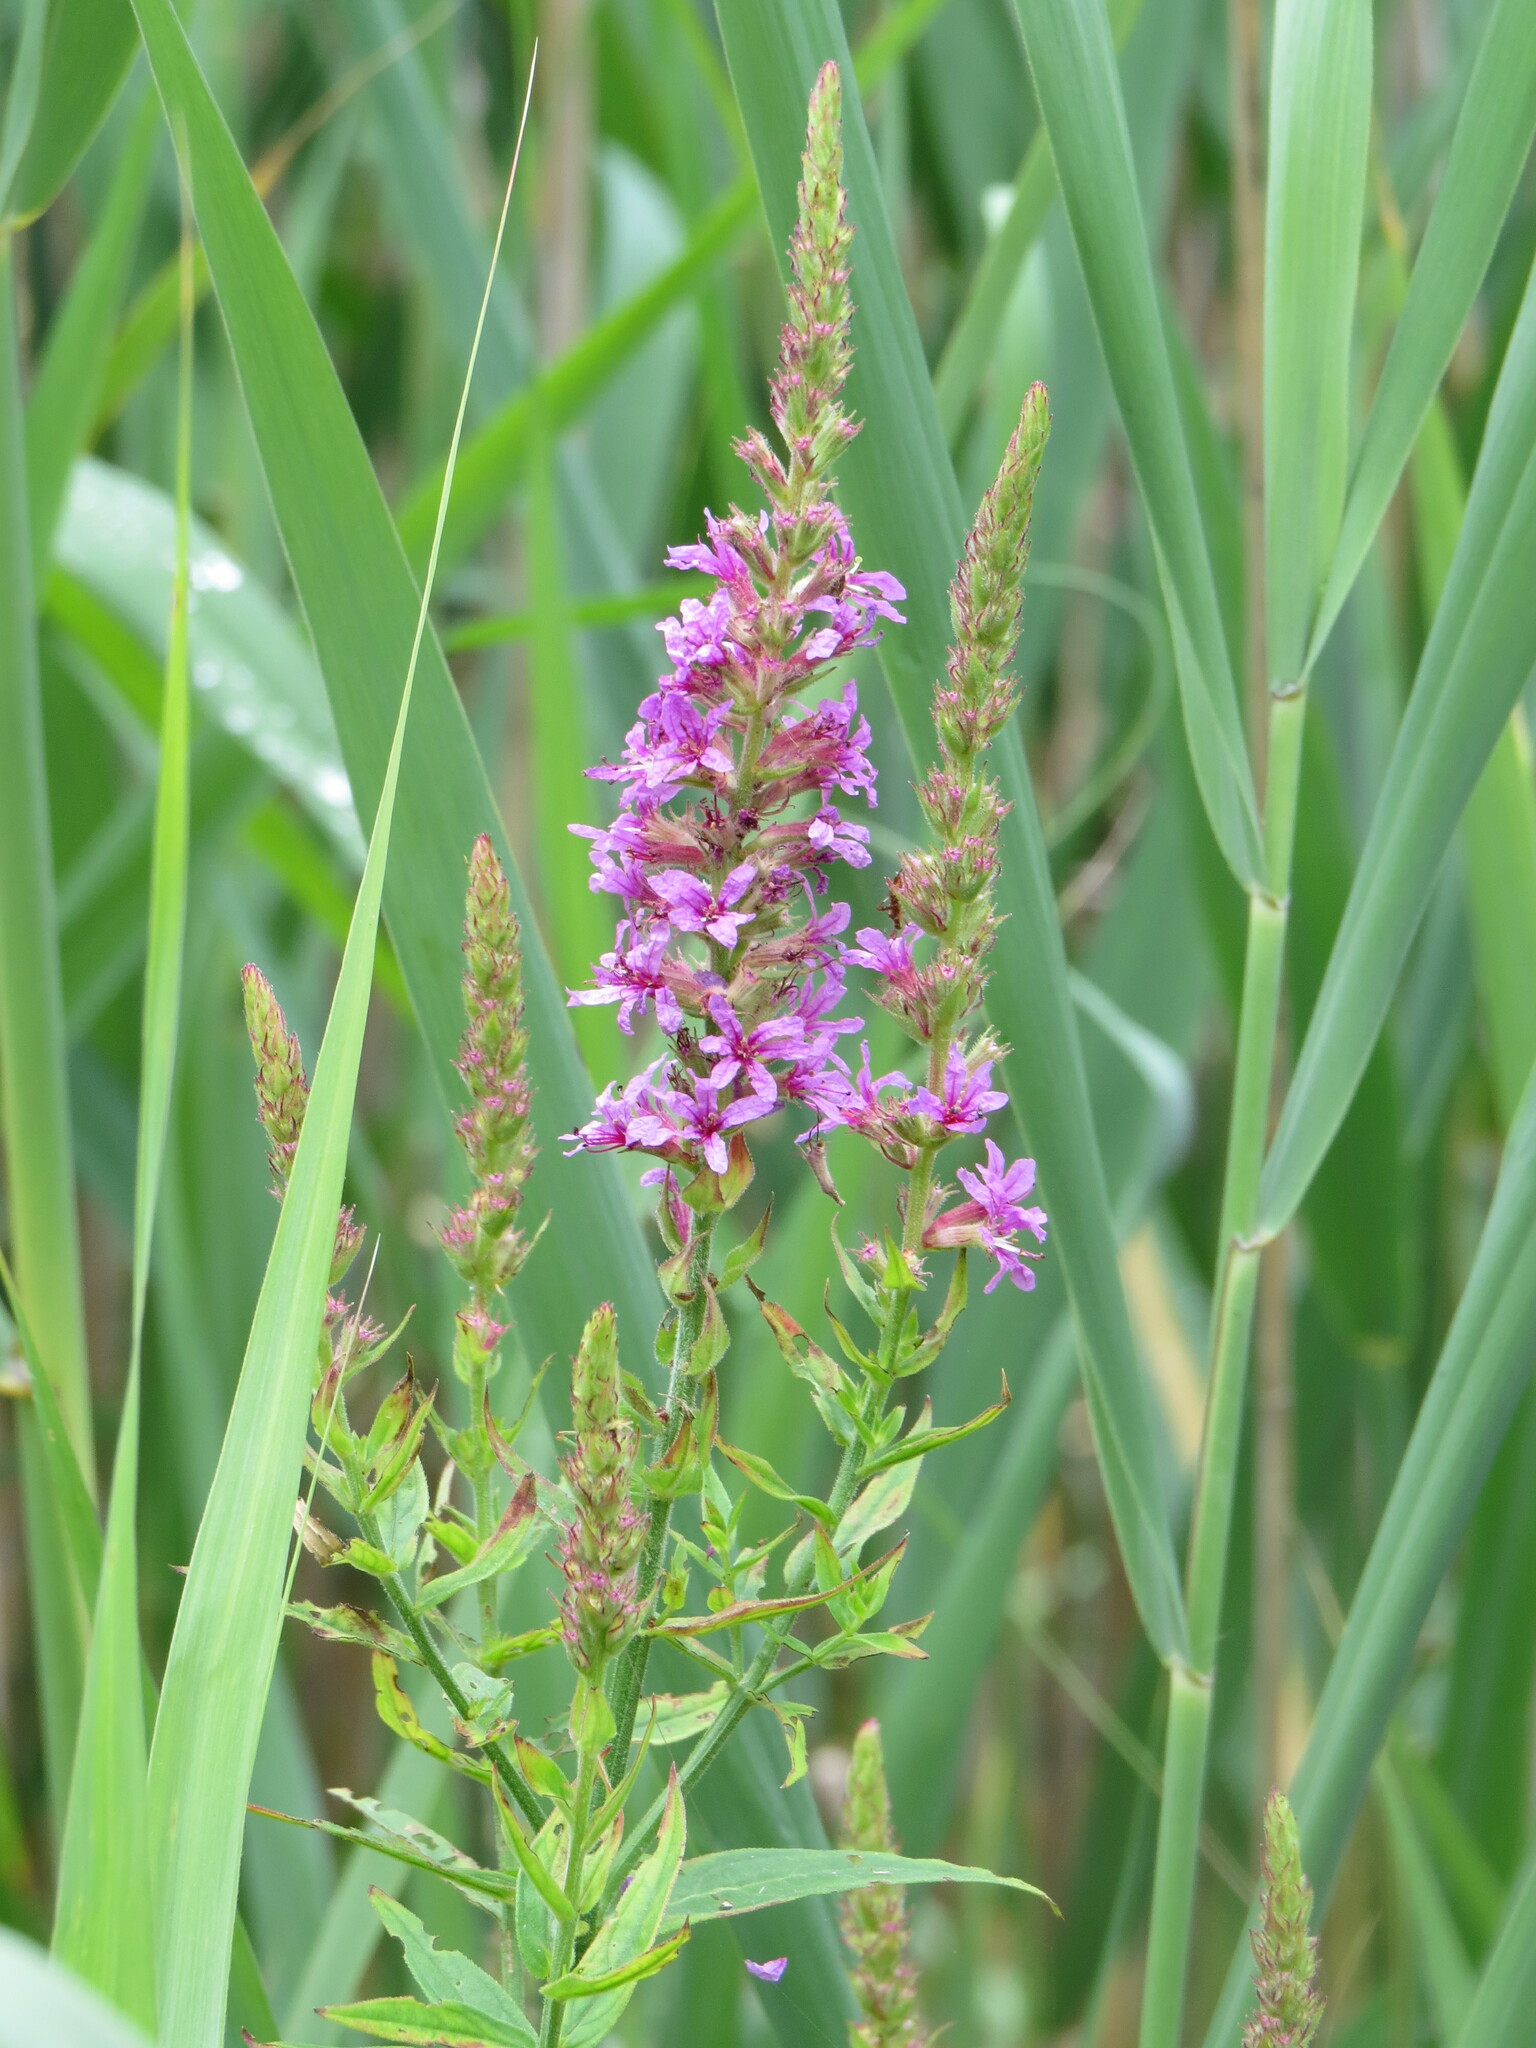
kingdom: Plantae
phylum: Tracheophyta
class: Magnoliopsida
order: Myrtales
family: Lythraceae
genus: Lythrum
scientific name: Lythrum salicaria
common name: Purple loosestrife
